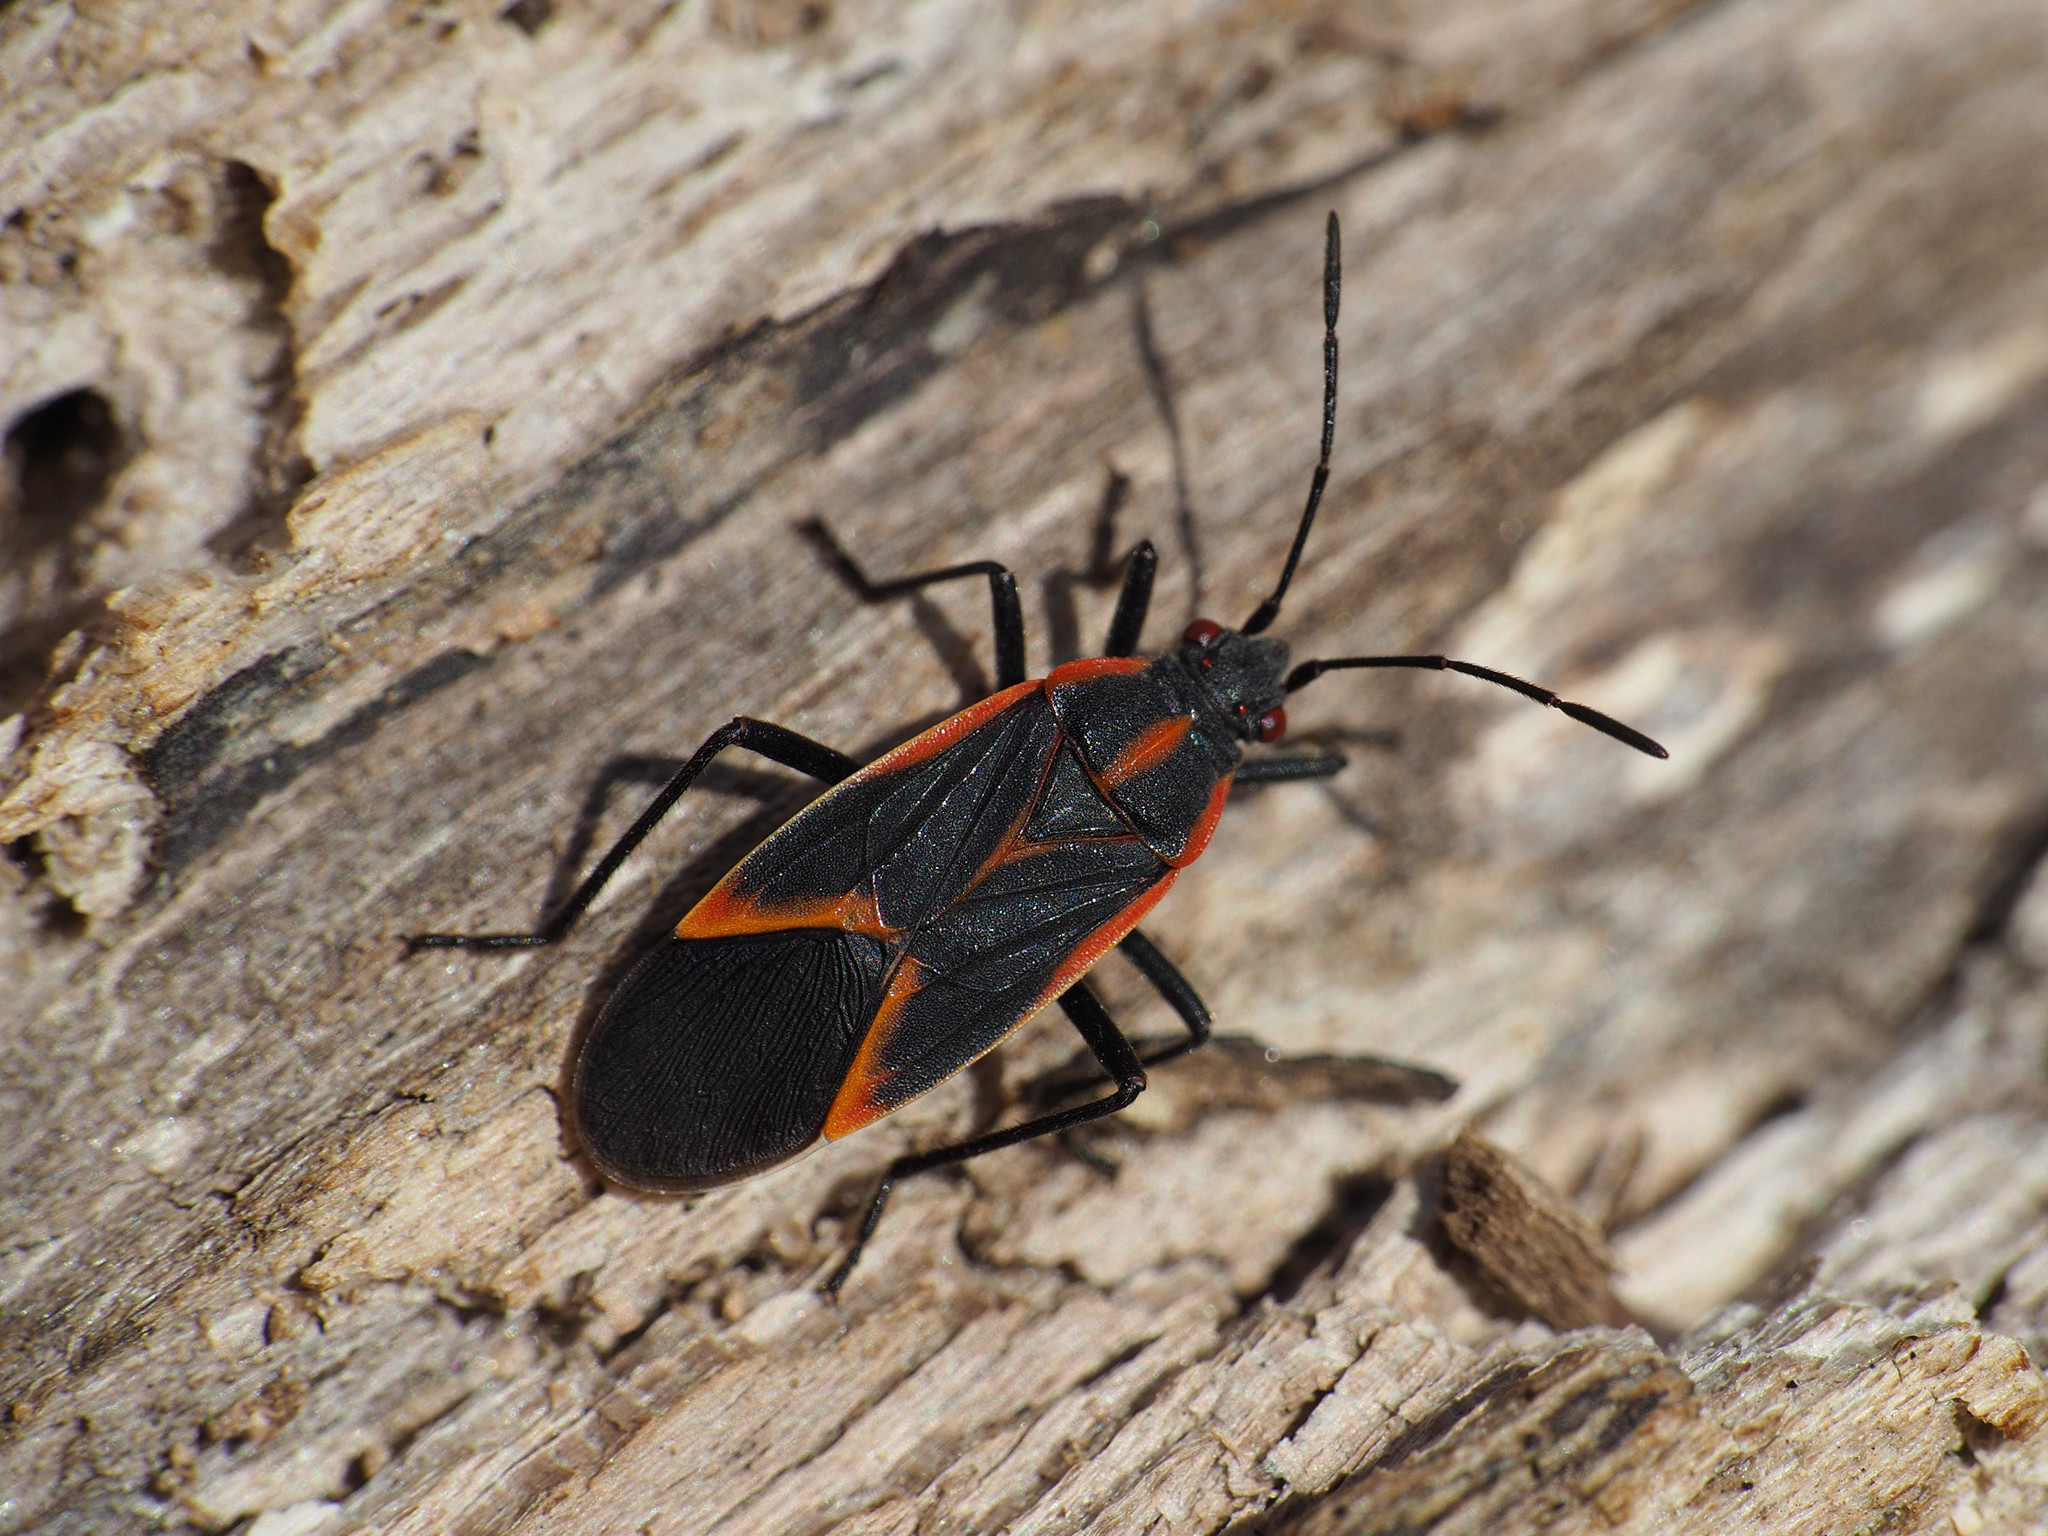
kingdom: Animalia
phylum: Arthropoda
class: Insecta
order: Hemiptera
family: Rhopalidae
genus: Boisea
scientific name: Boisea trivittata
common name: Boxelder bug
